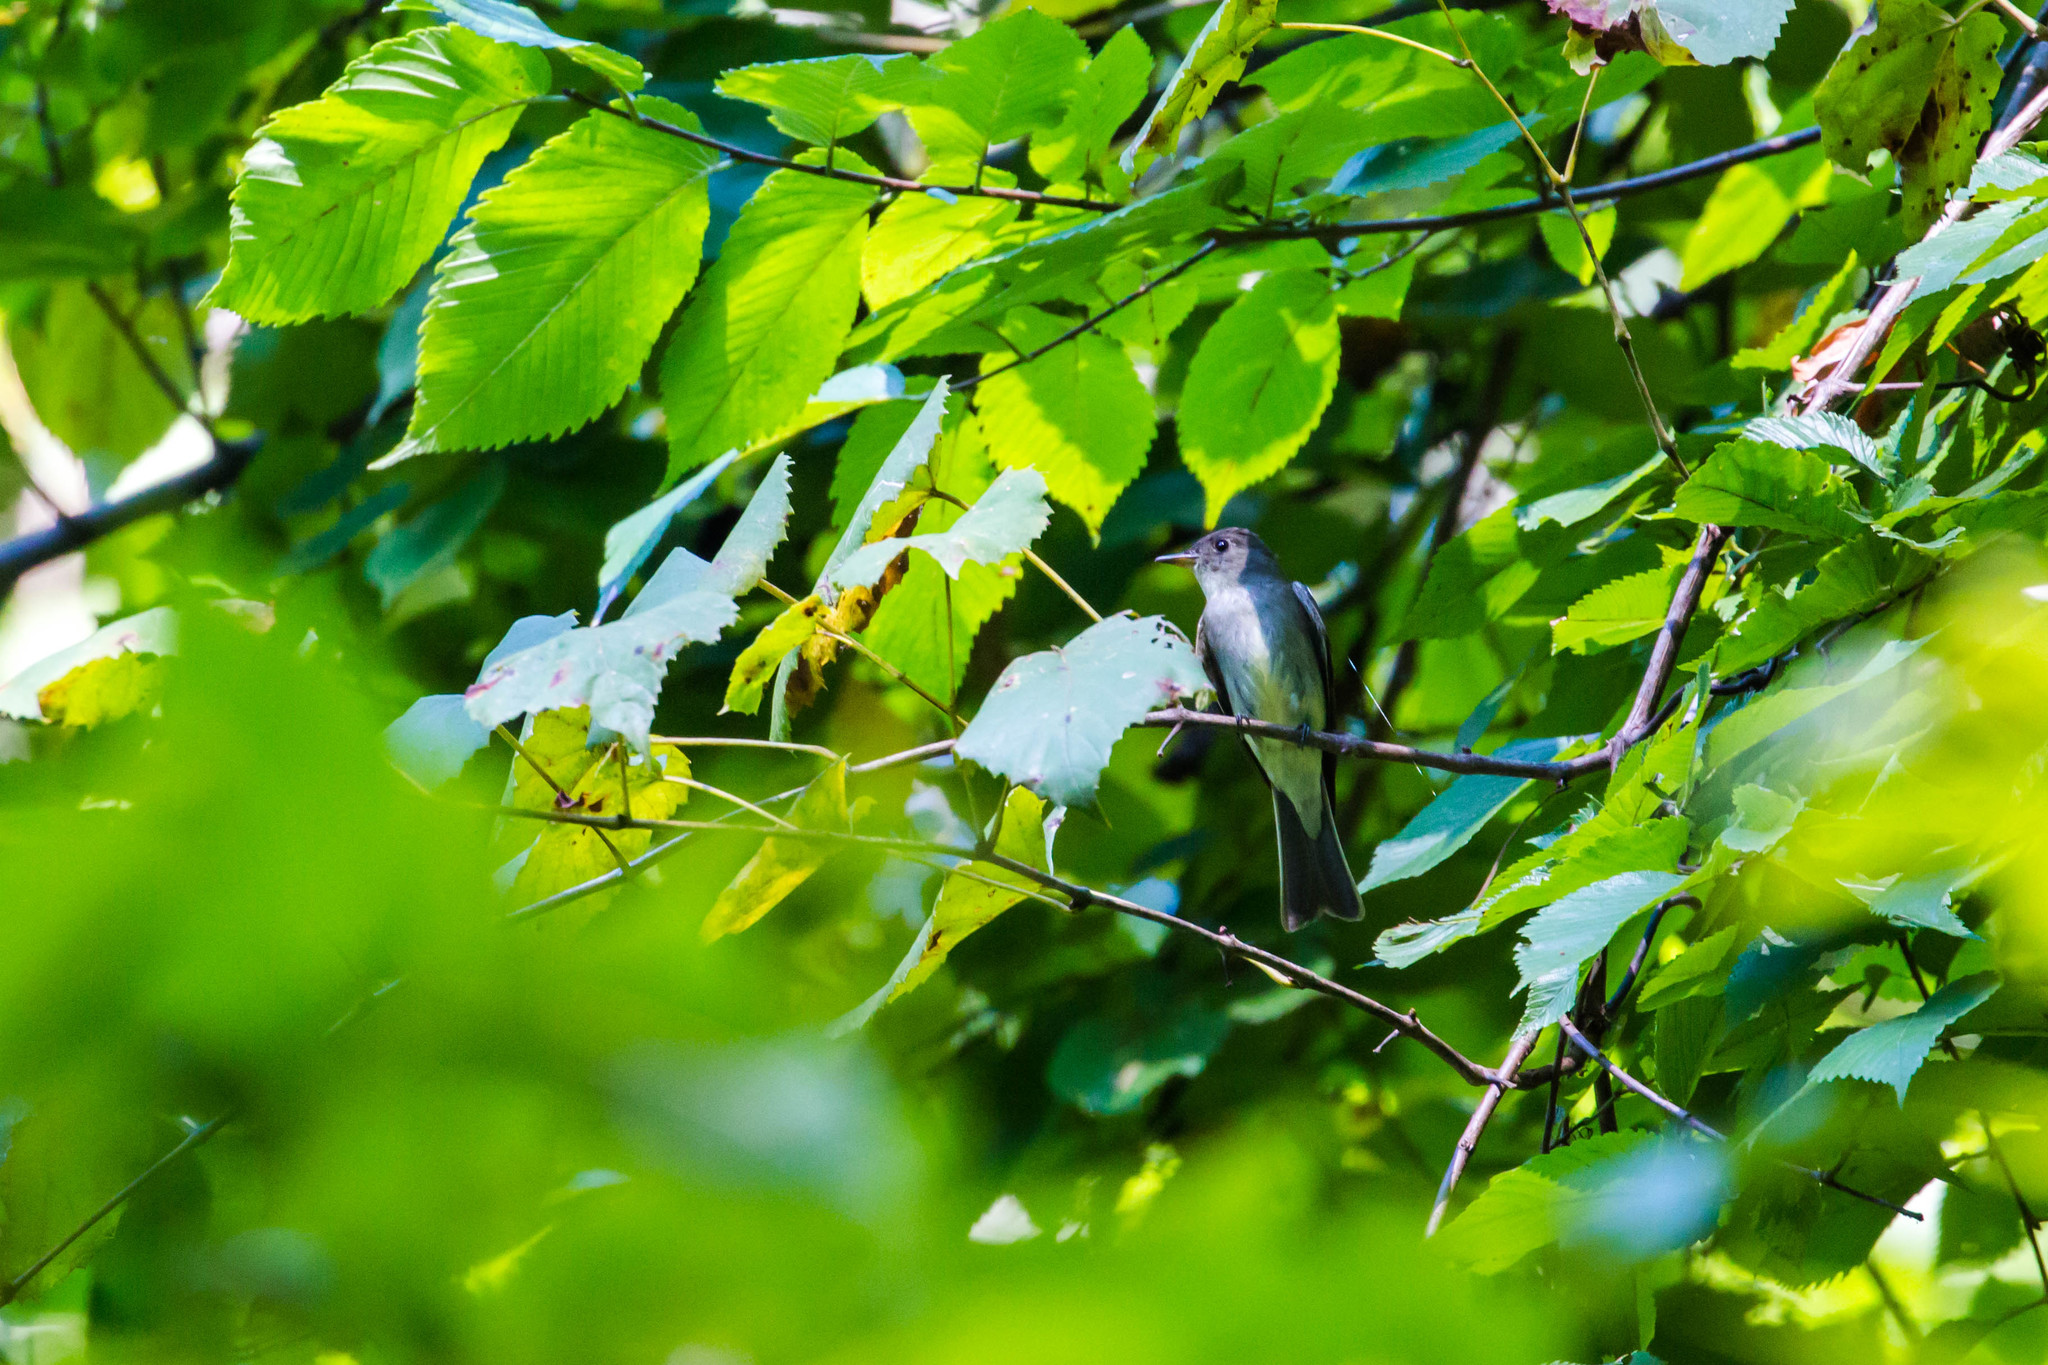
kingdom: Animalia
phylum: Chordata
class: Aves
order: Passeriformes
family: Tyrannidae
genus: Contopus
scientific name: Contopus virens
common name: Eastern wood-pewee
